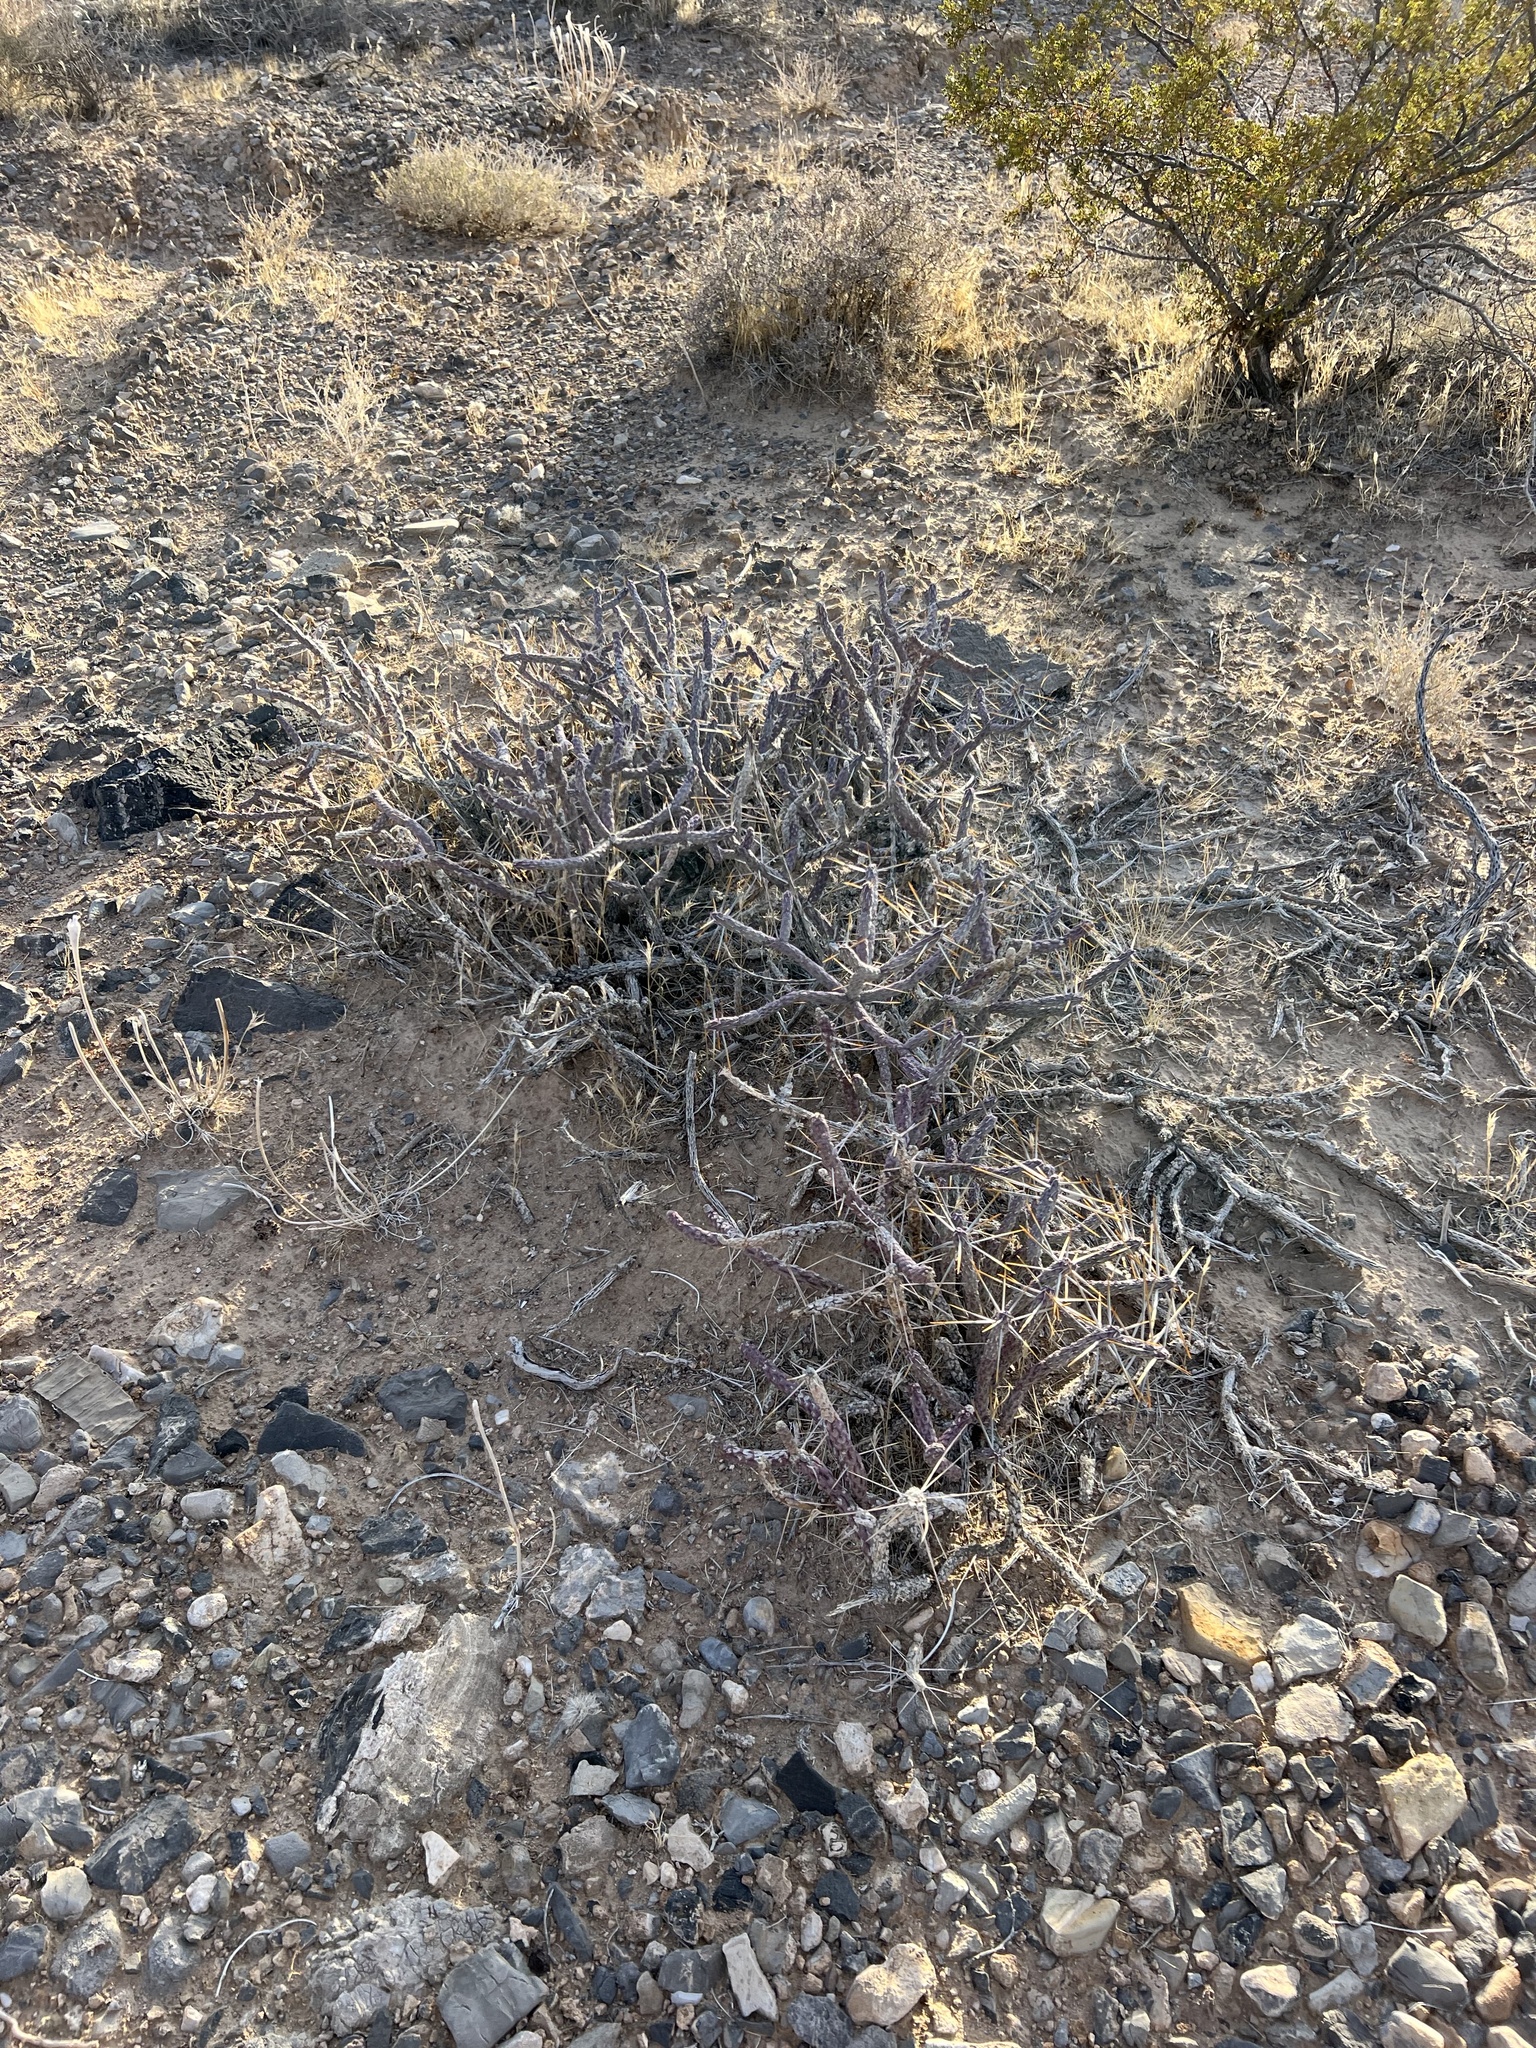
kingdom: Plantae
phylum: Tracheophyta
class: Magnoliopsida
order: Caryophyllales
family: Cactaceae
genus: Cylindropuntia
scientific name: Cylindropuntia ramosissima
